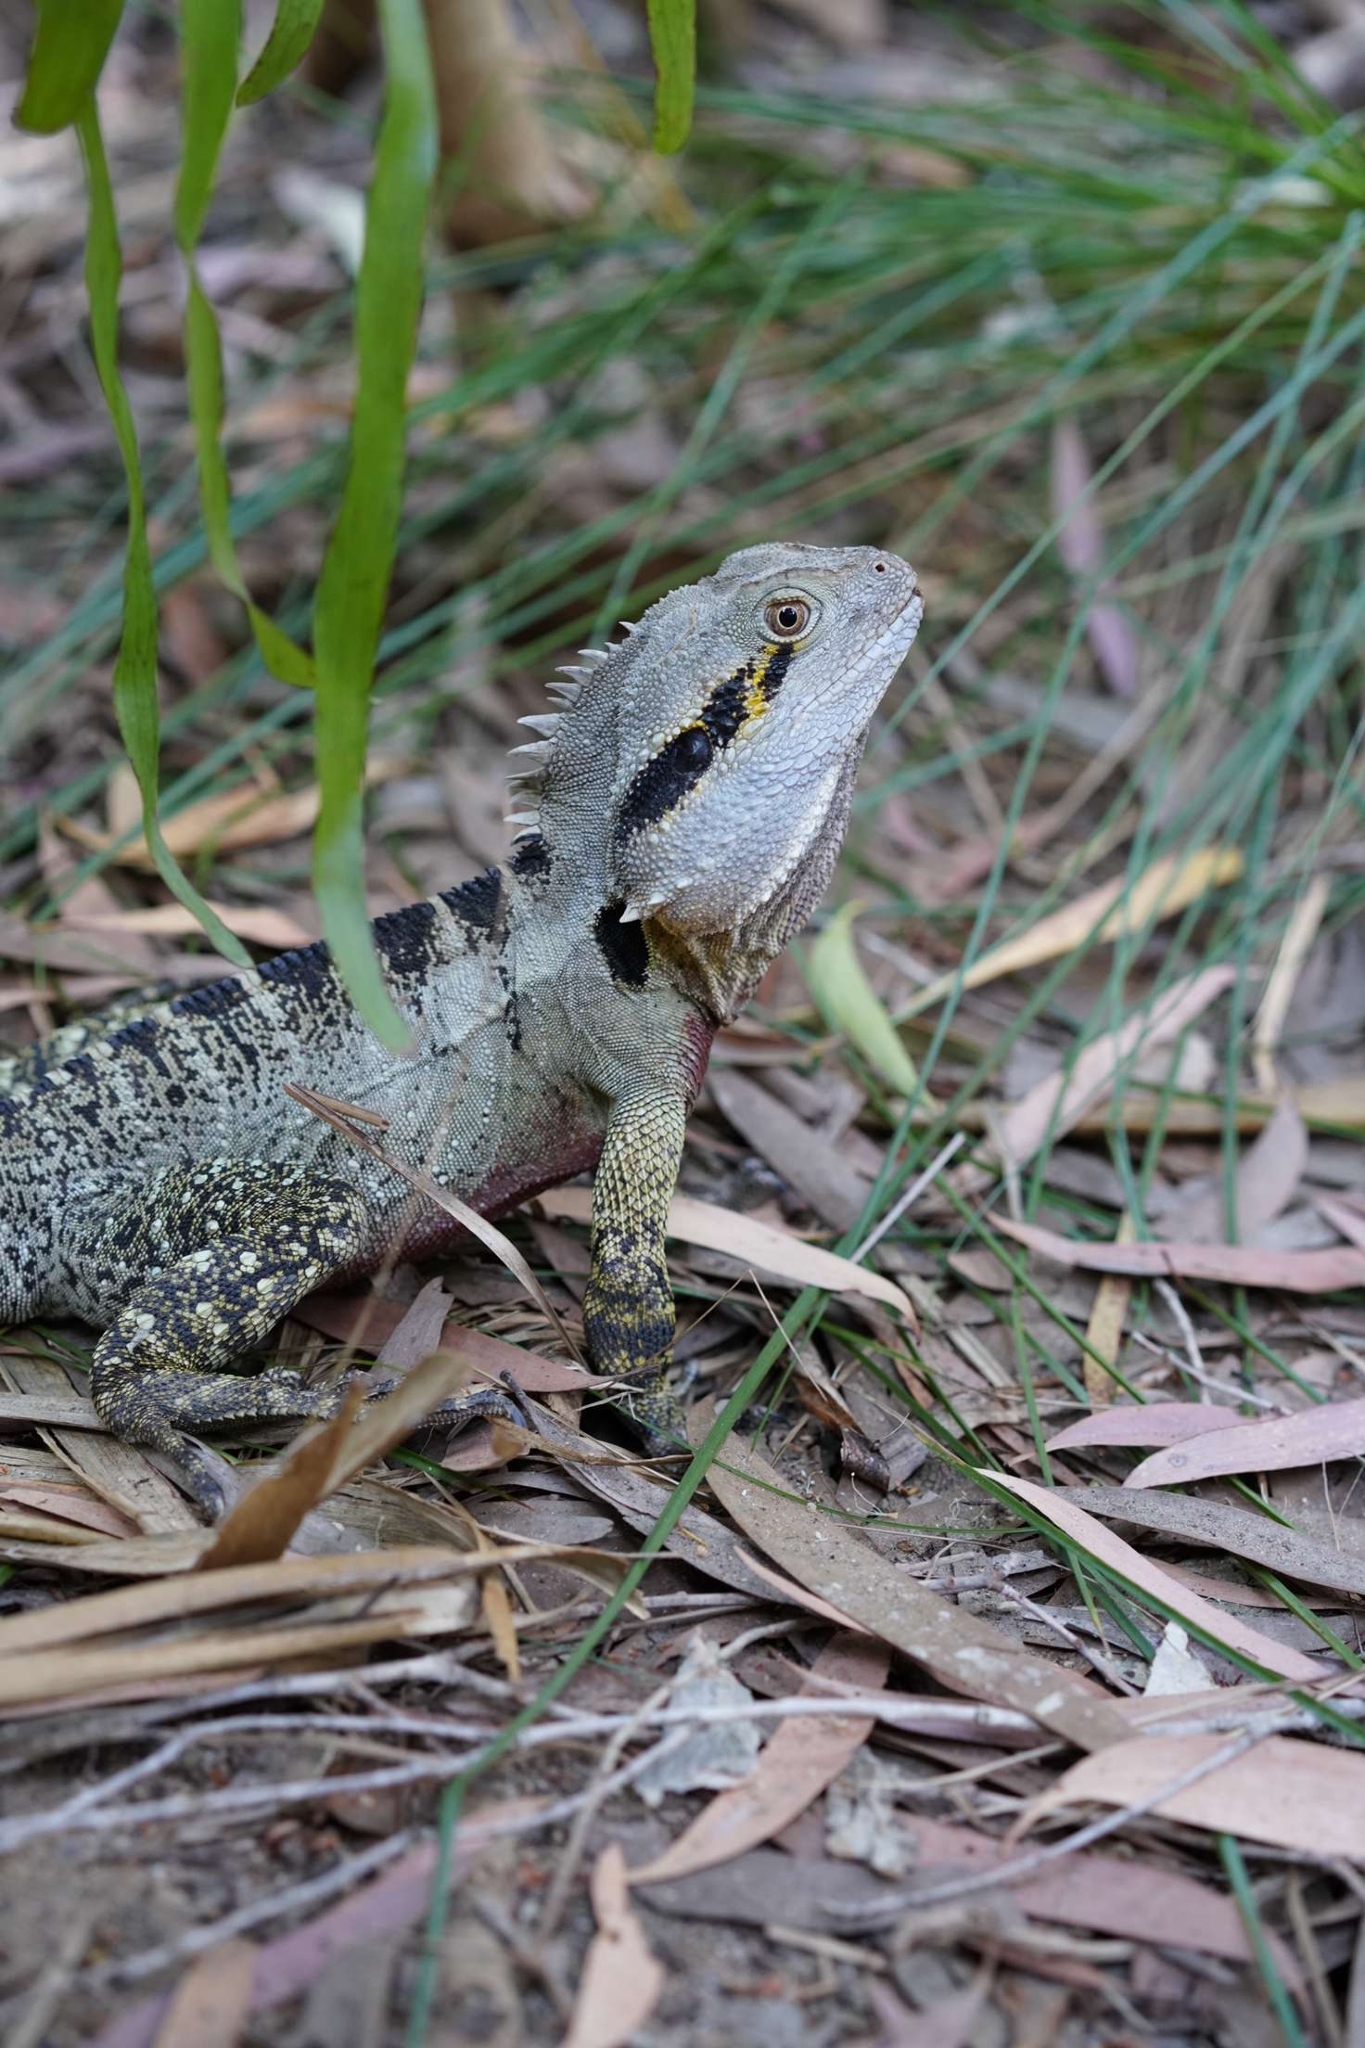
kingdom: Animalia
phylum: Chordata
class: Squamata
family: Agamidae
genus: Intellagama
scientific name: Intellagama lesueurii
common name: Eastern water dragon
